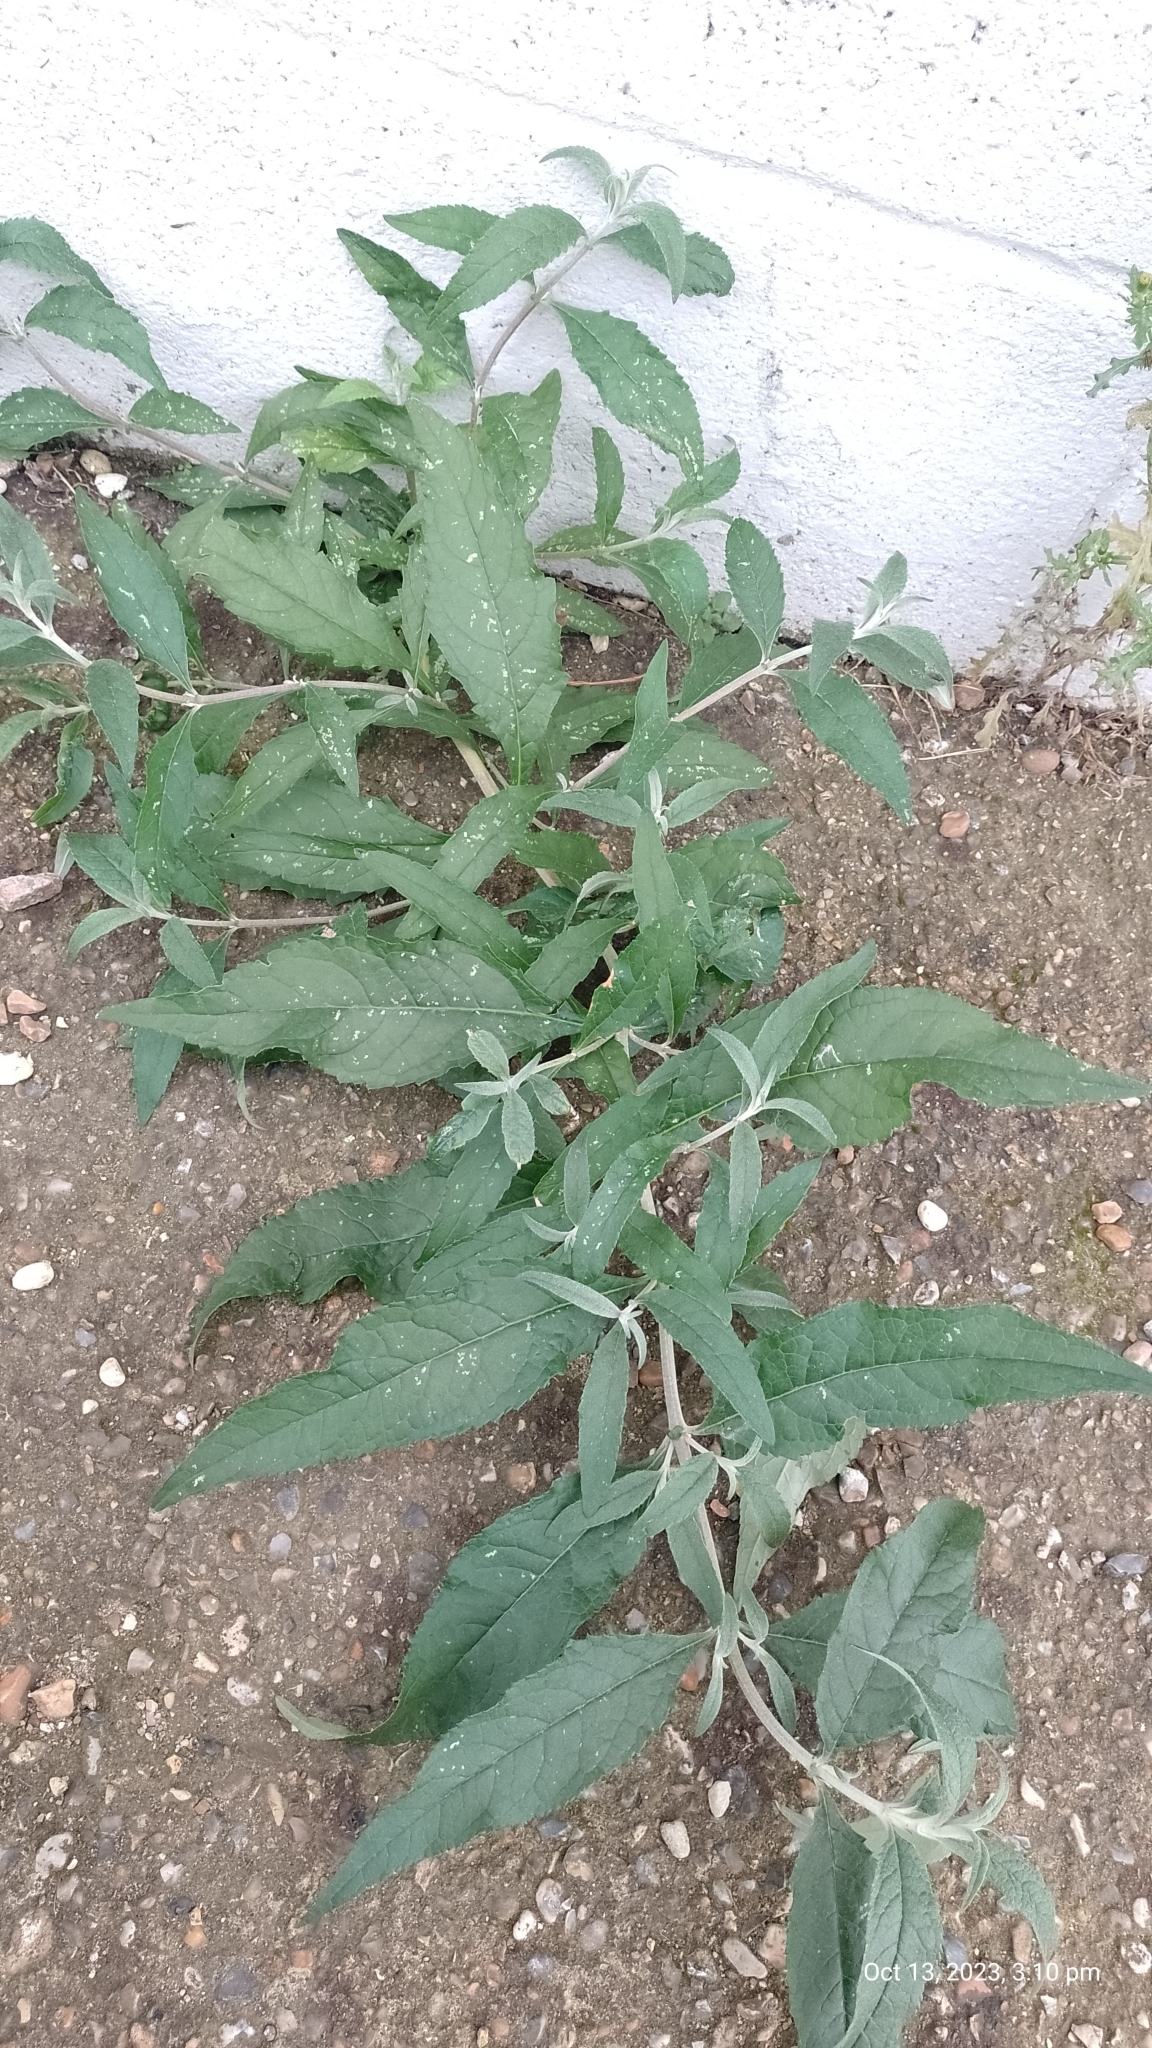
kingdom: Plantae
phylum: Tracheophyta
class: Magnoliopsida
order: Lamiales
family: Scrophulariaceae
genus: Buddleja
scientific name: Buddleja davidii
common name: Butterfly-bush
